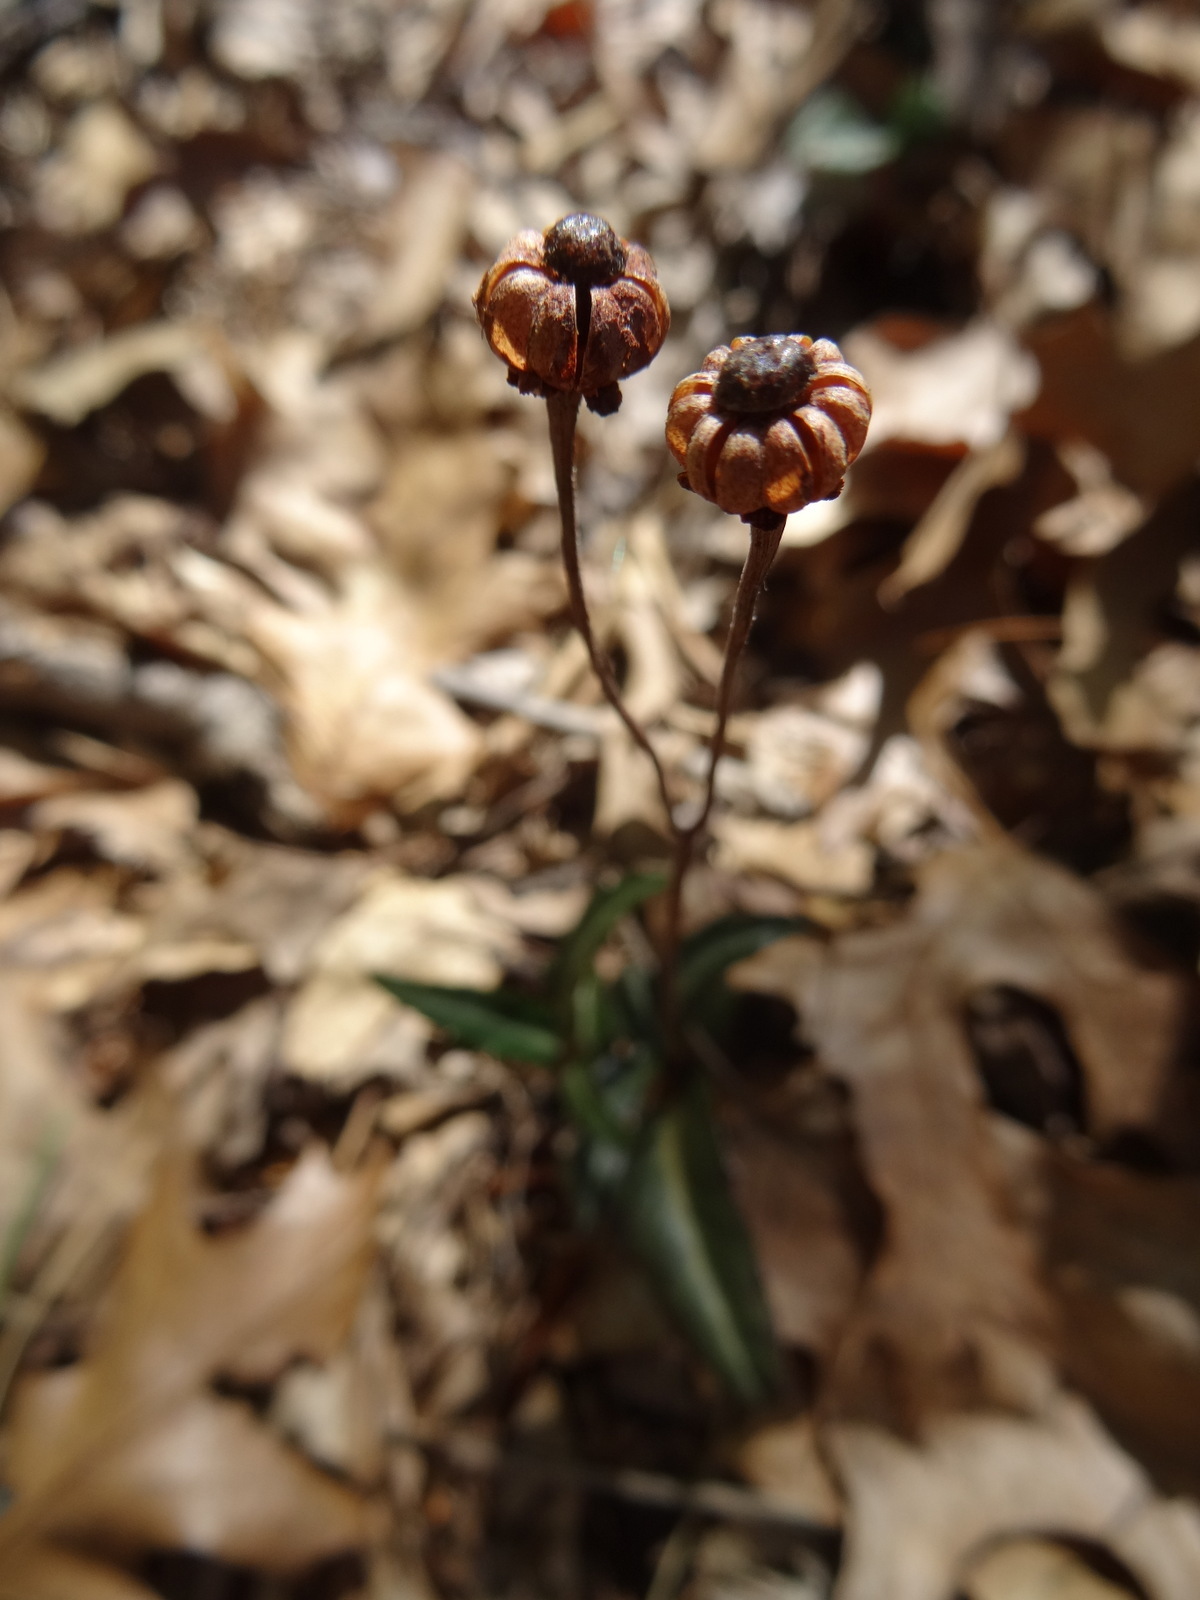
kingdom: Plantae
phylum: Tracheophyta
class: Magnoliopsida
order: Ericales
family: Ericaceae
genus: Chimaphila
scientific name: Chimaphila maculata
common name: Spotted pipsissewa
